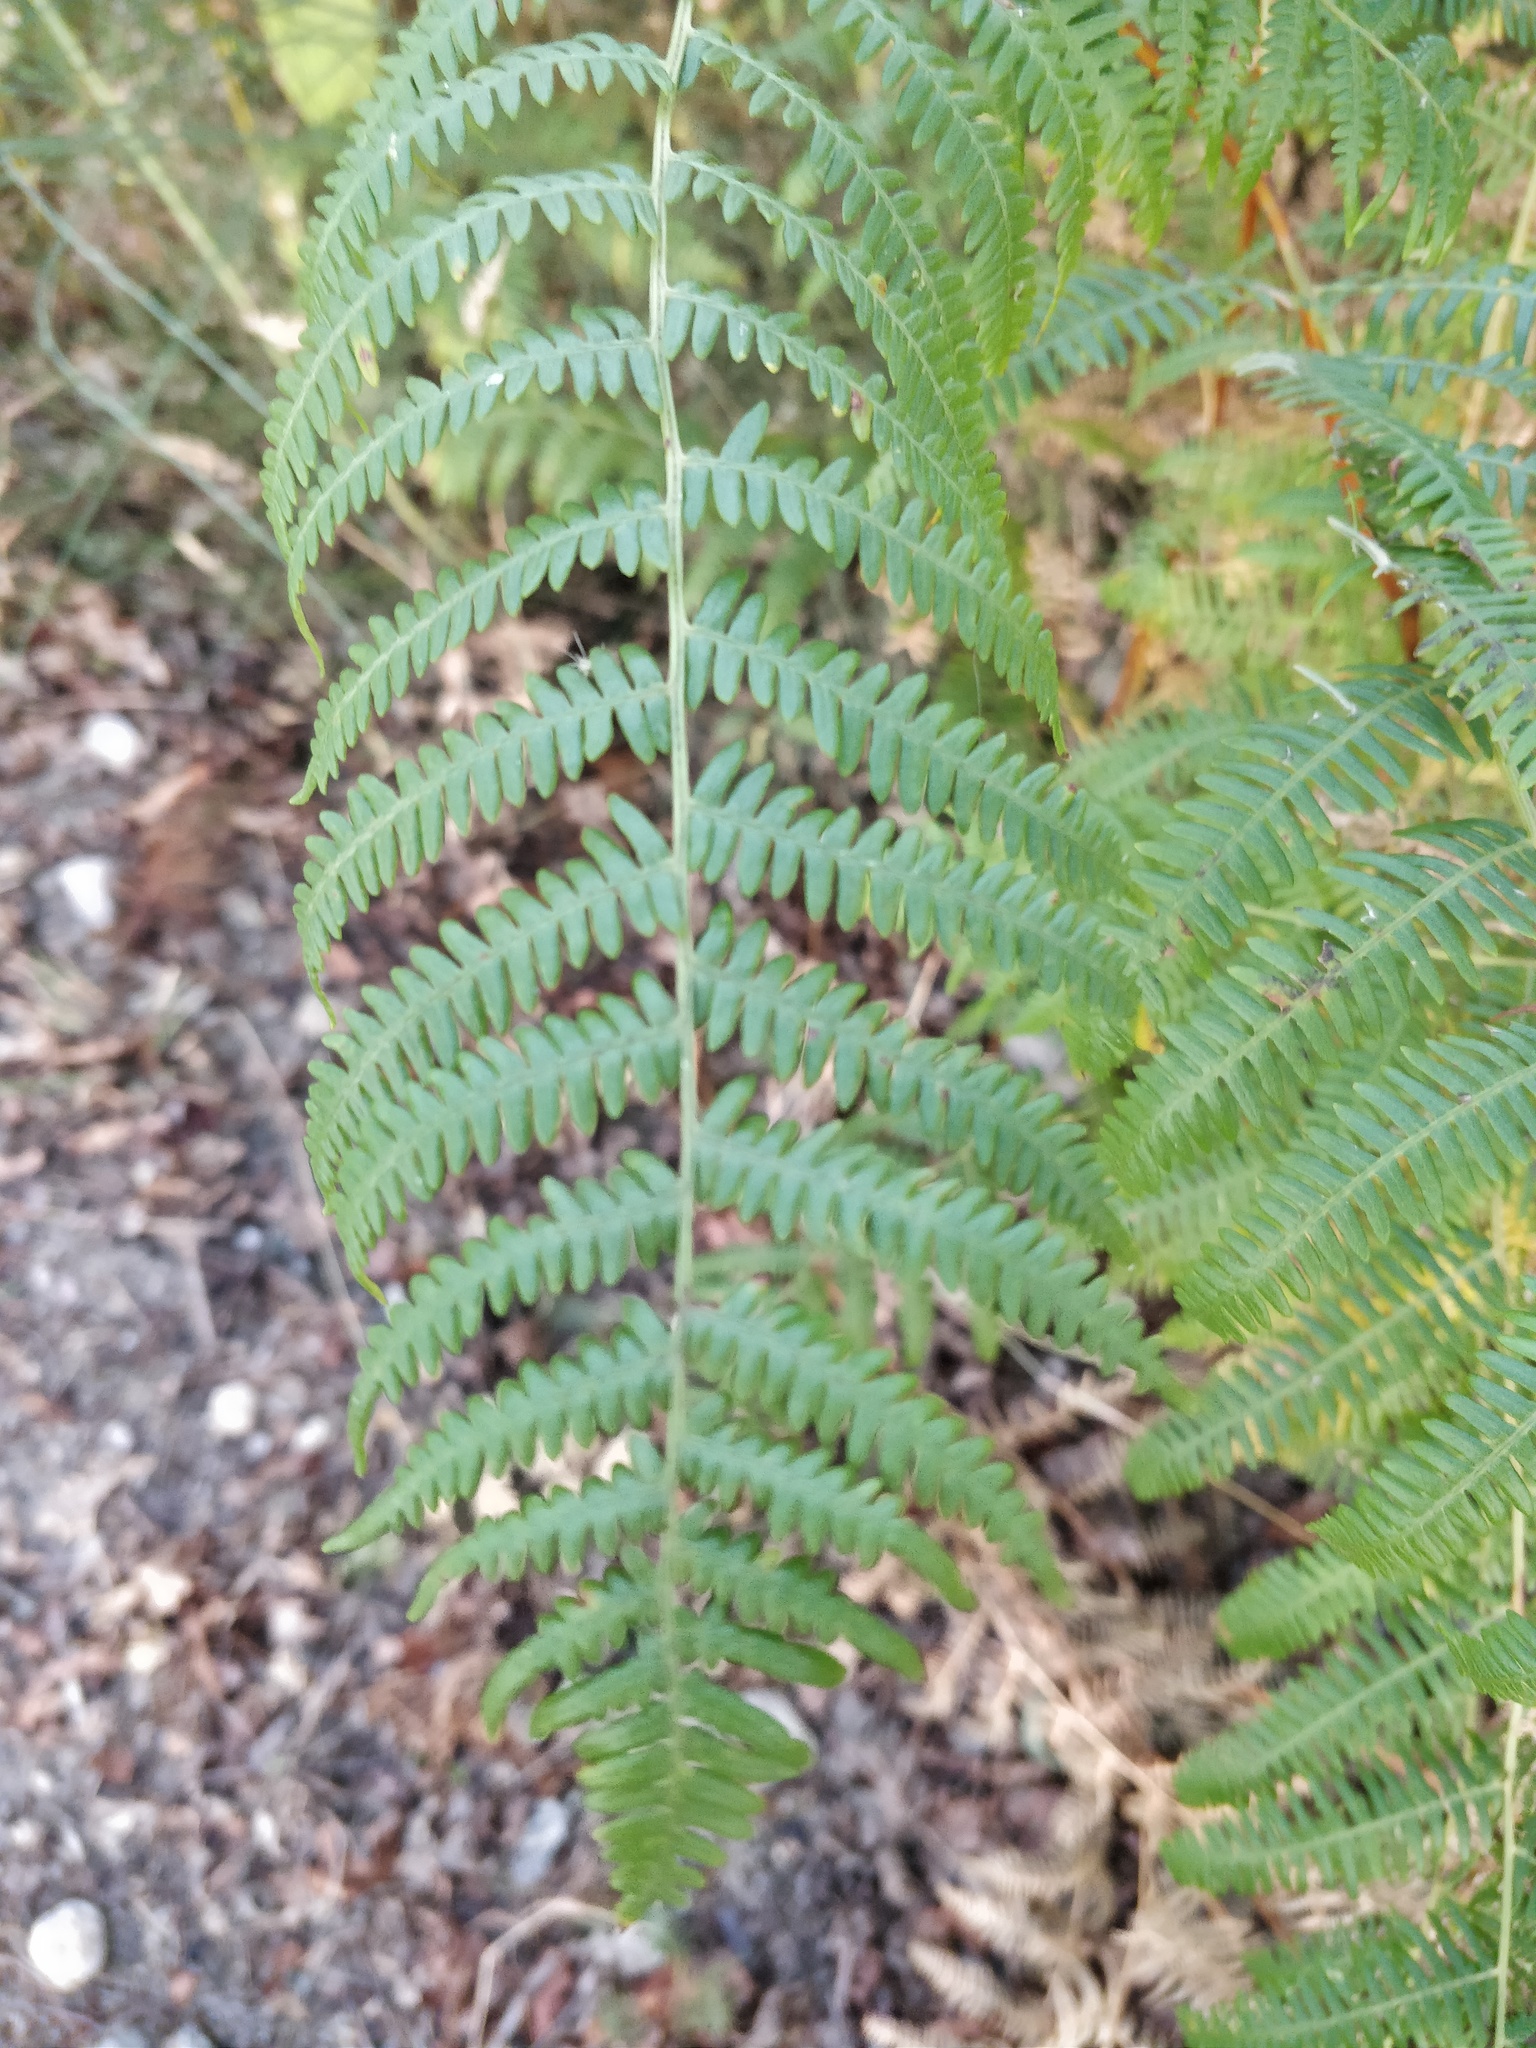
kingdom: Plantae
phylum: Tracheophyta
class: Polypodiopsida
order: Polypodiales
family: Dennstaedtiaceae
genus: Pteridium
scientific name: Pteridium aquilinum
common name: Bracken
